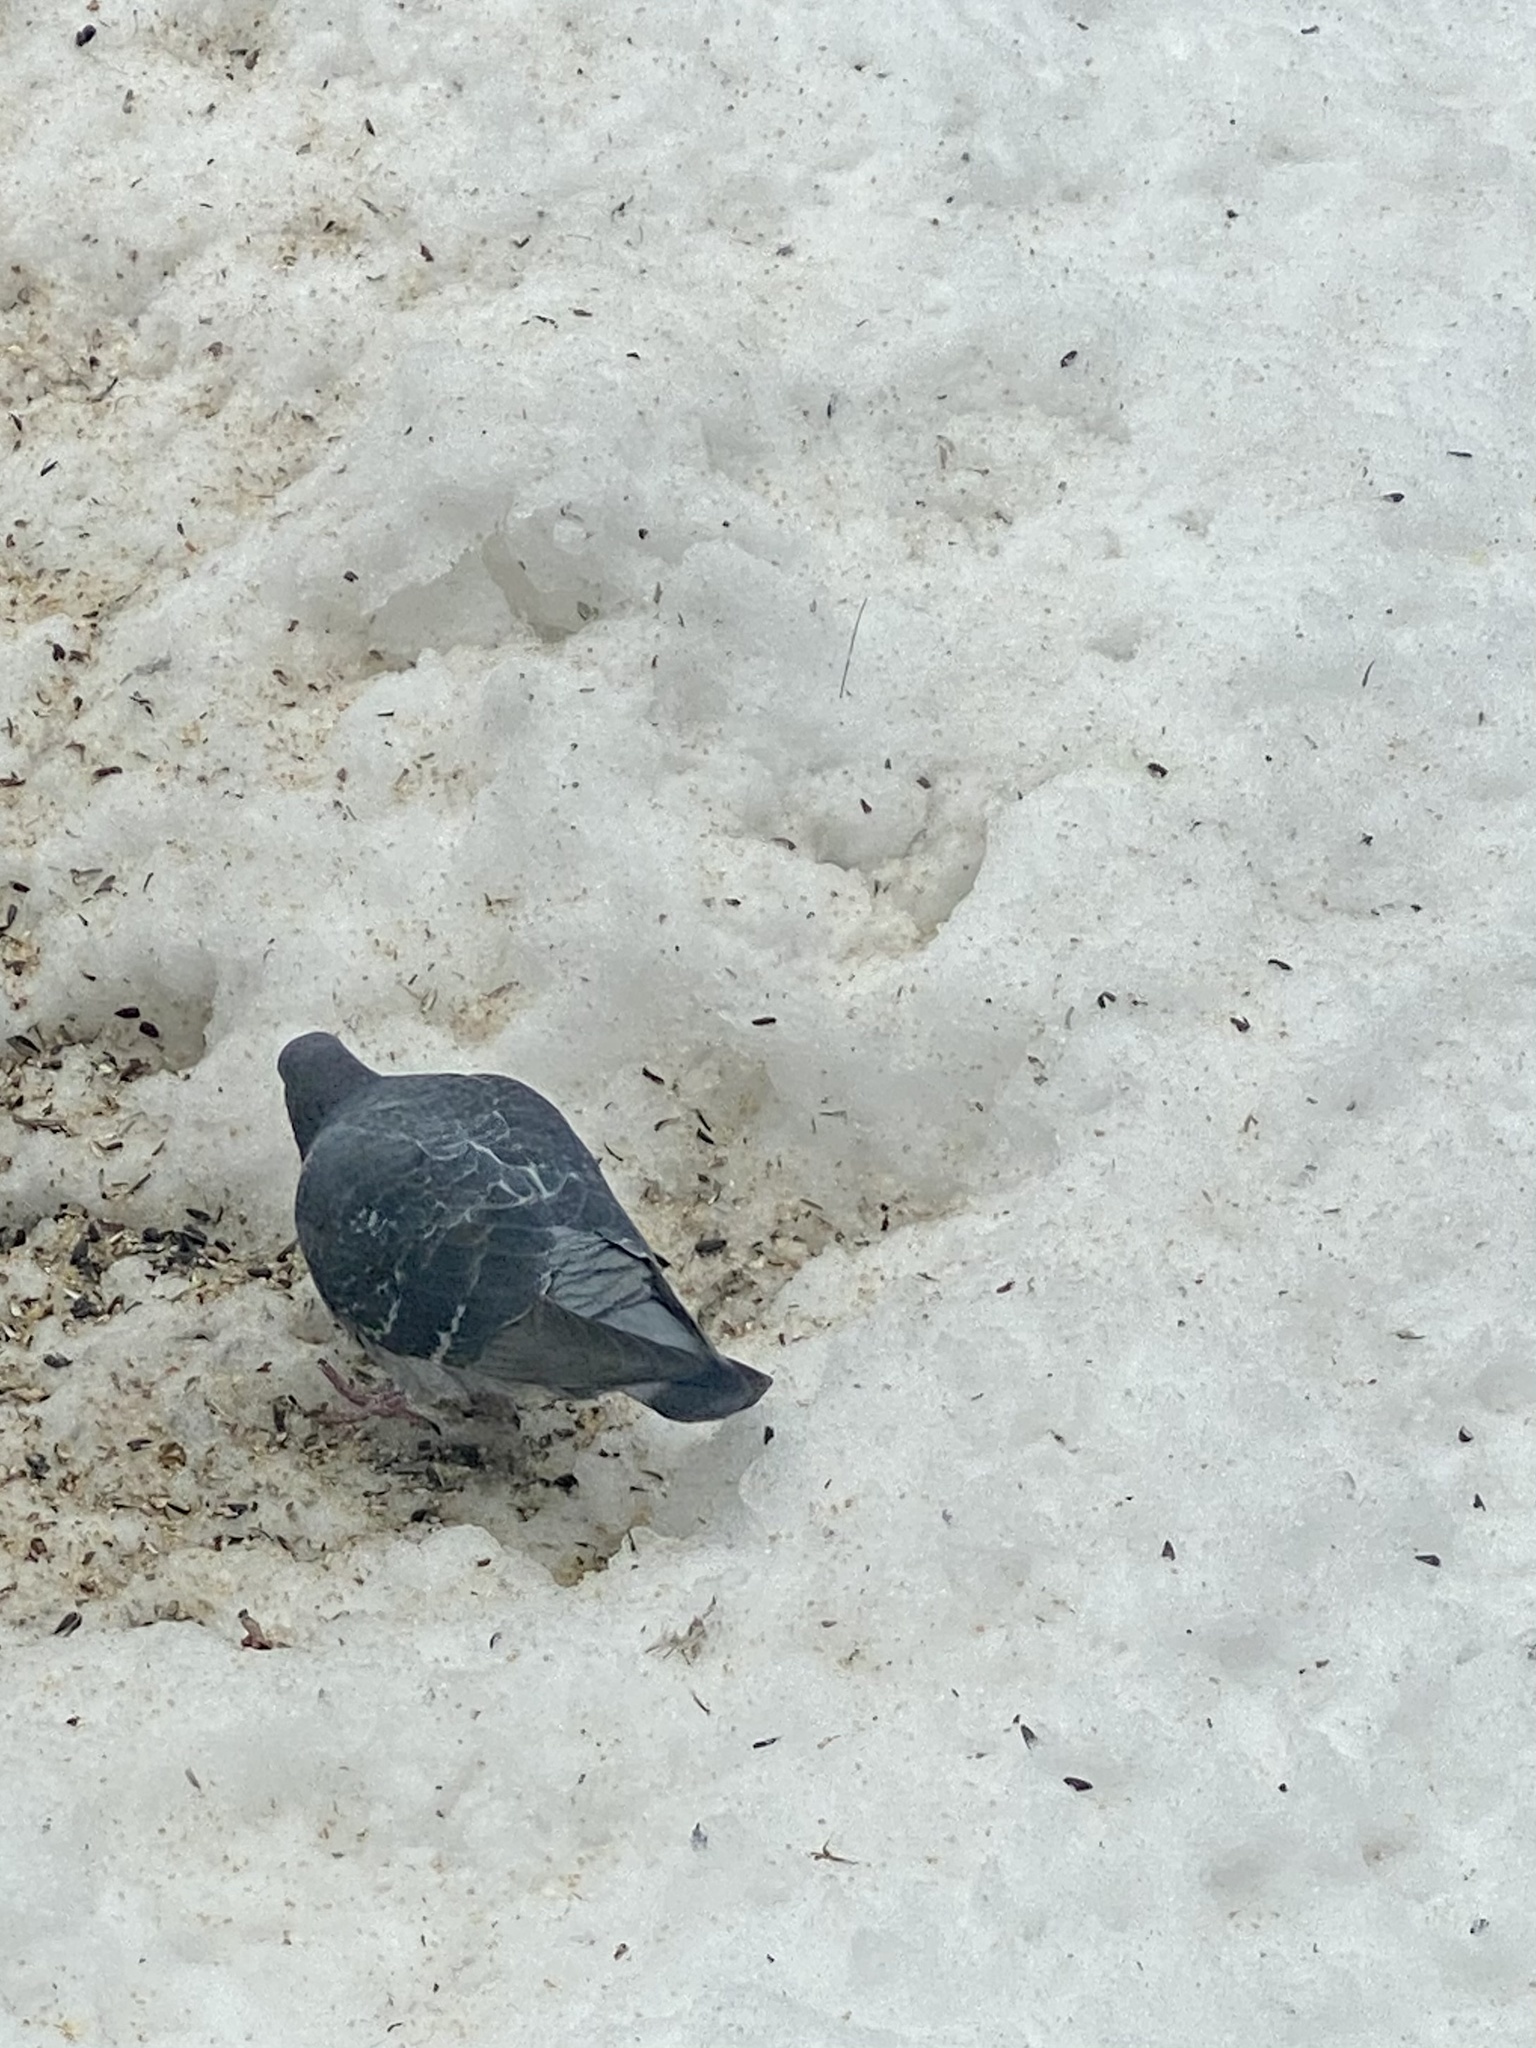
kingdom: Animalia
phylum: Chordata
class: Aves
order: Columbiformes
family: Columbidae
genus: Columba
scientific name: Columba livia
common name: Rock pigeon
